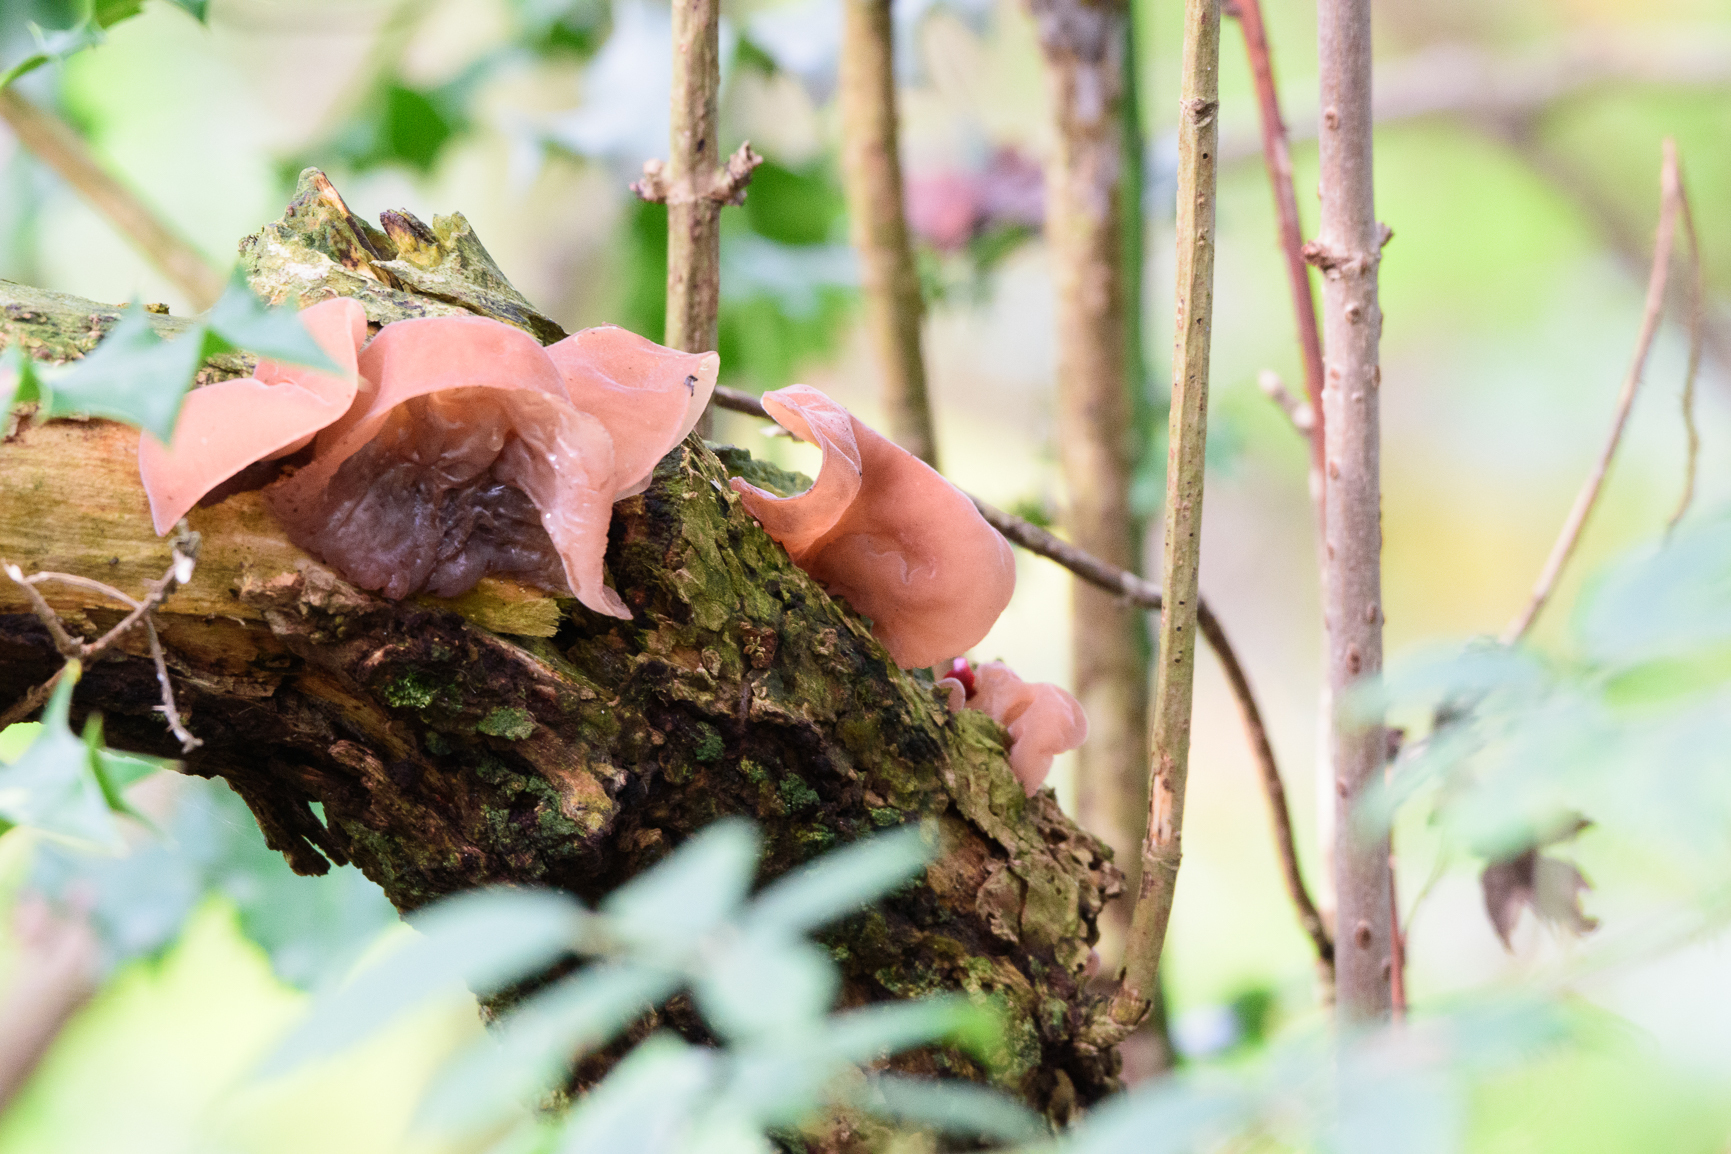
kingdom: Fungi
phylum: Basidiomycota
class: Agaricomycetes
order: Auriculariales
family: Auriculariaceae
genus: Auricularia
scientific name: Auricularia auricula-judae
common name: Jelly ear
